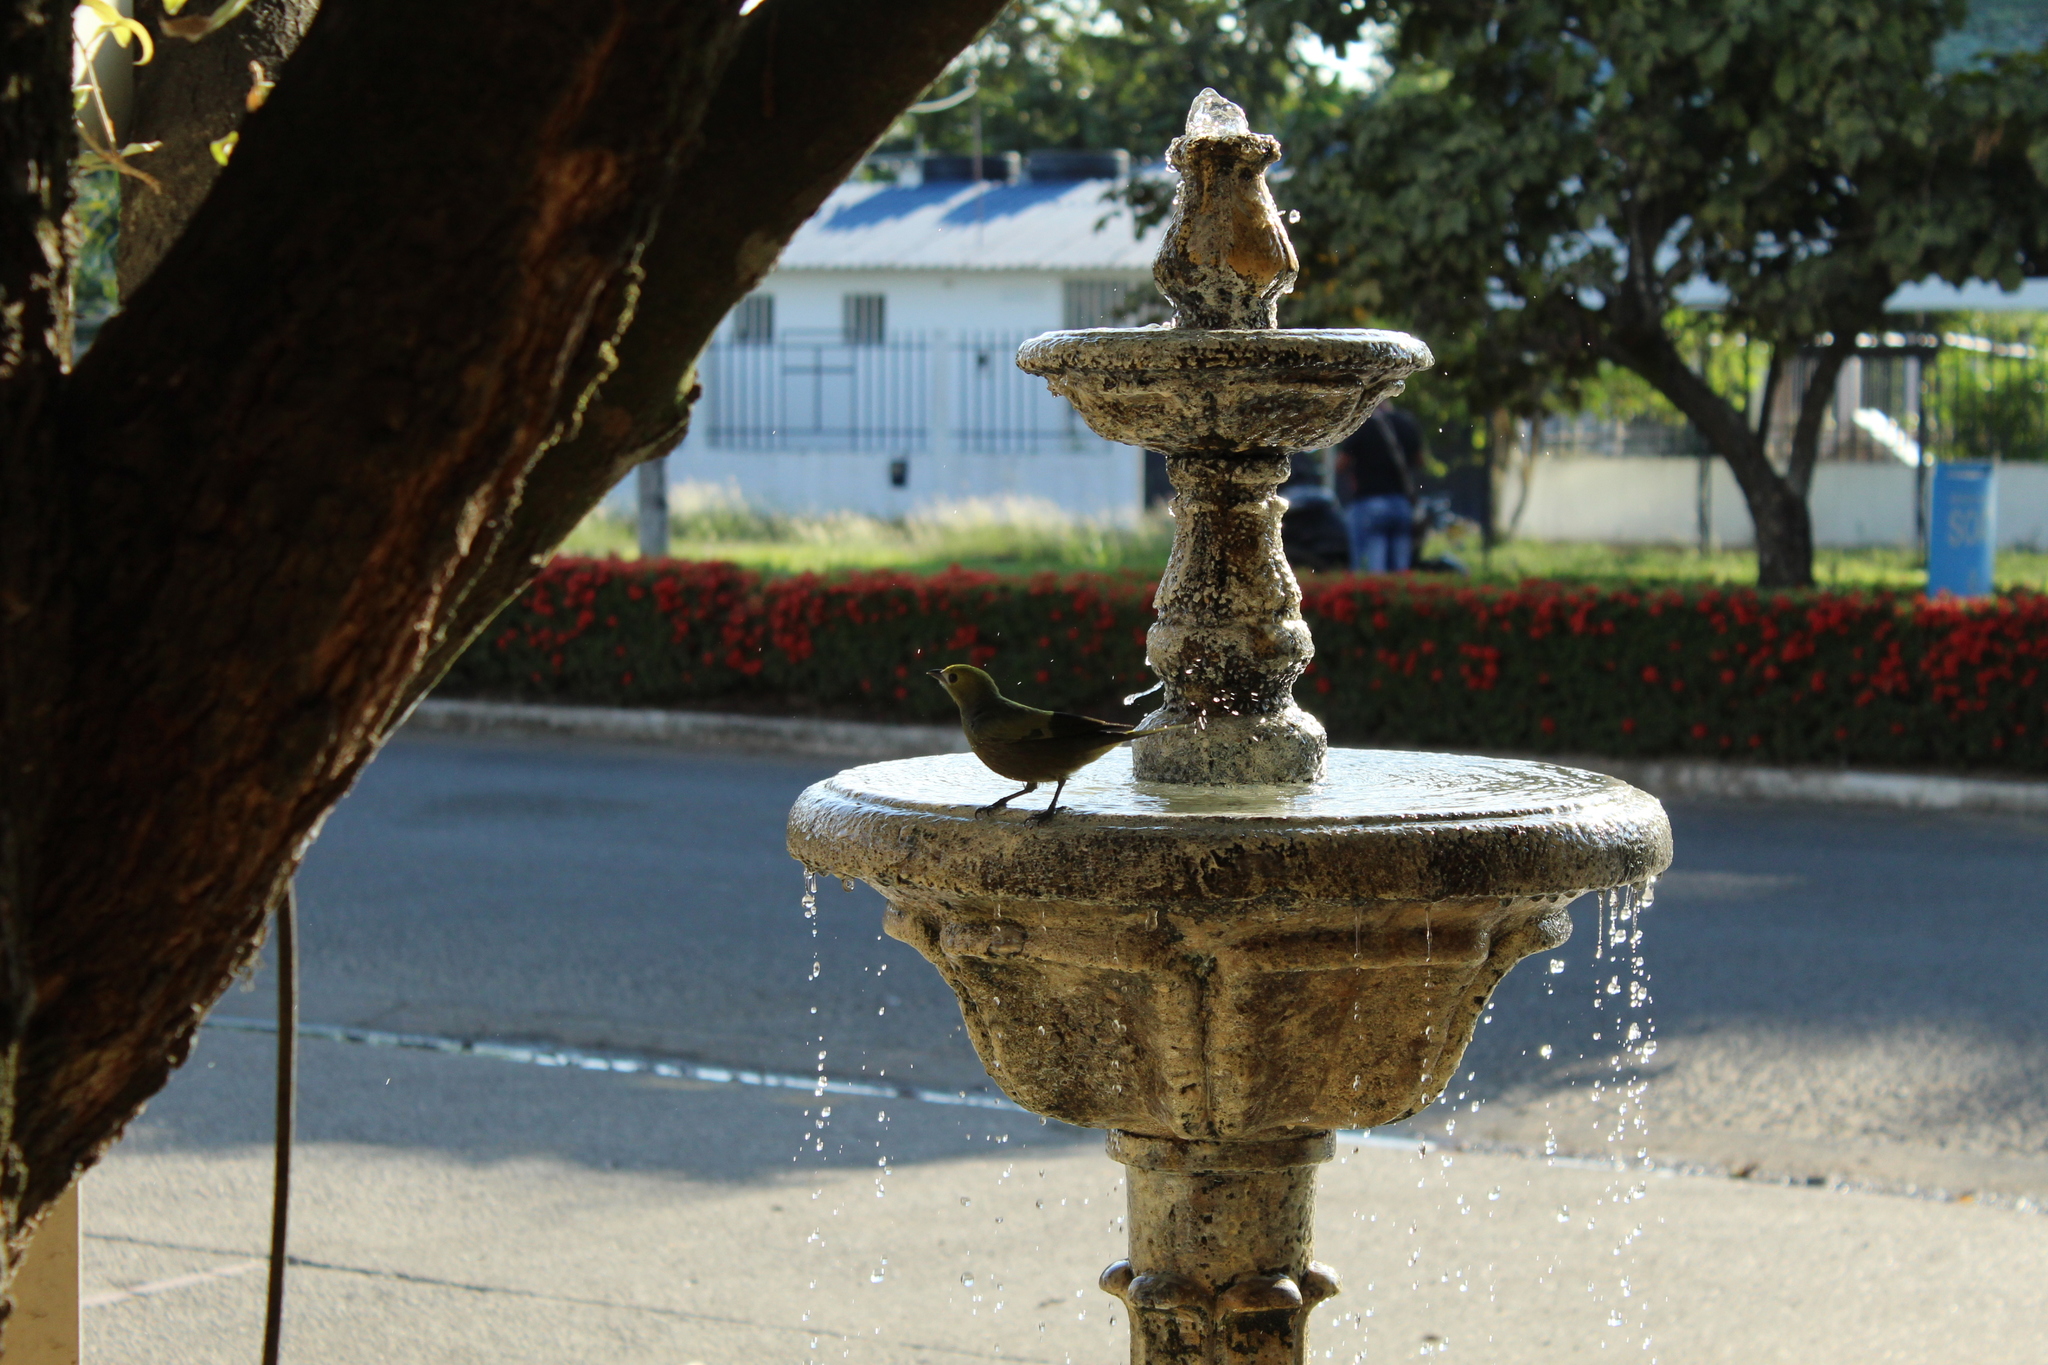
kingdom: Animalia
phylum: Chordata
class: Aves
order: Passeriformes
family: Thraupidae
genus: Thraupis
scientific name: Thraupis palmarum
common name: Palm tanager
